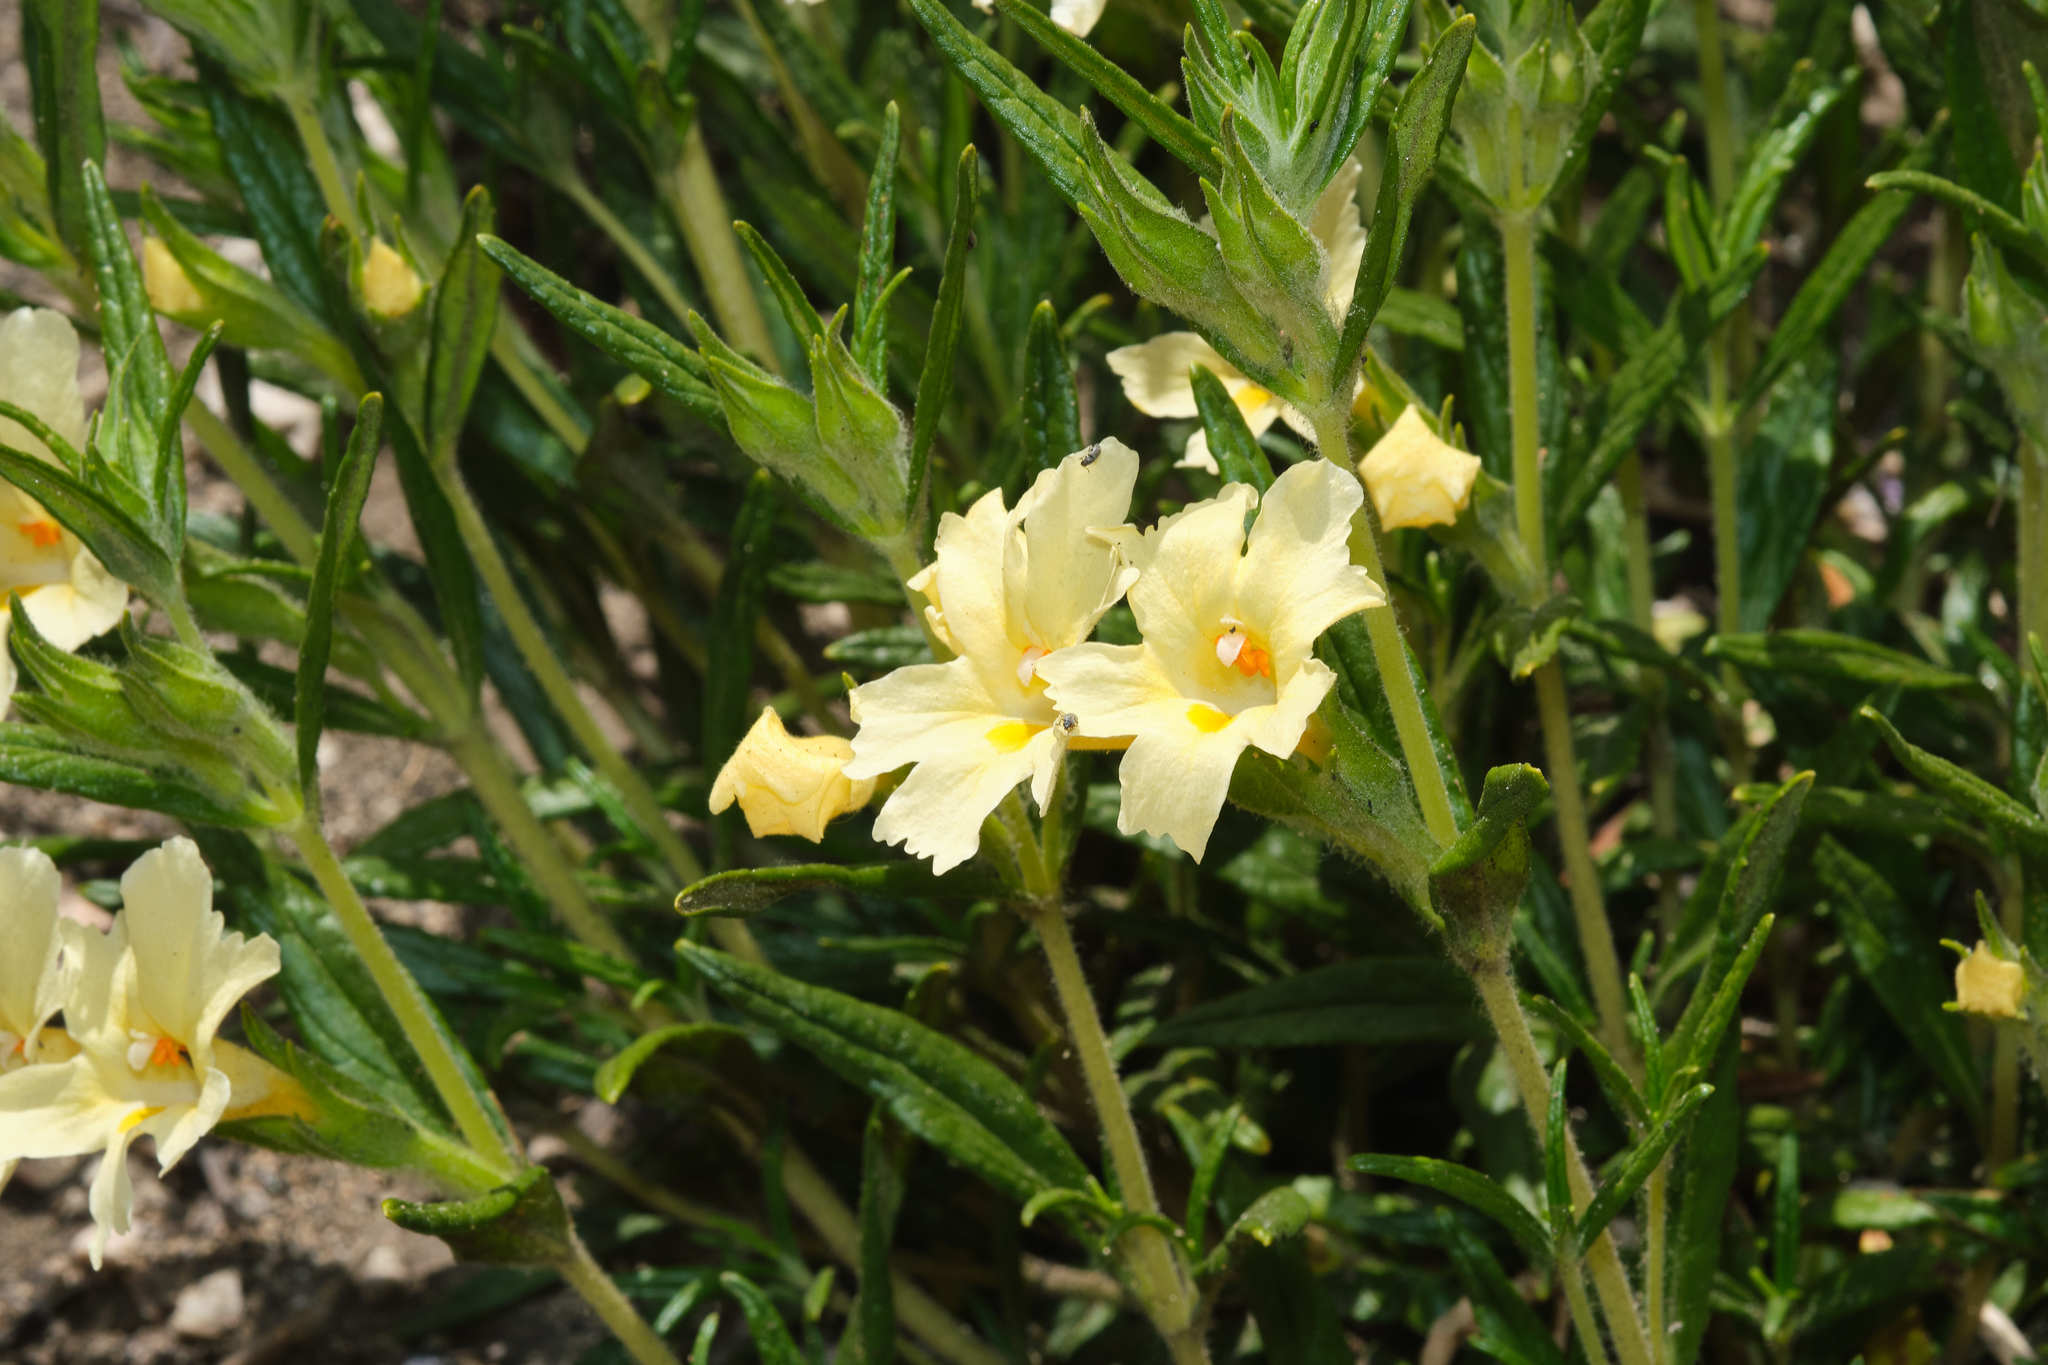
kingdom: Plantae
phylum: Tracheophyta
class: Magnoliopsida
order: Lamiales
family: Phrymaceae
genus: Diplacus
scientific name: Diplacus calycinus
